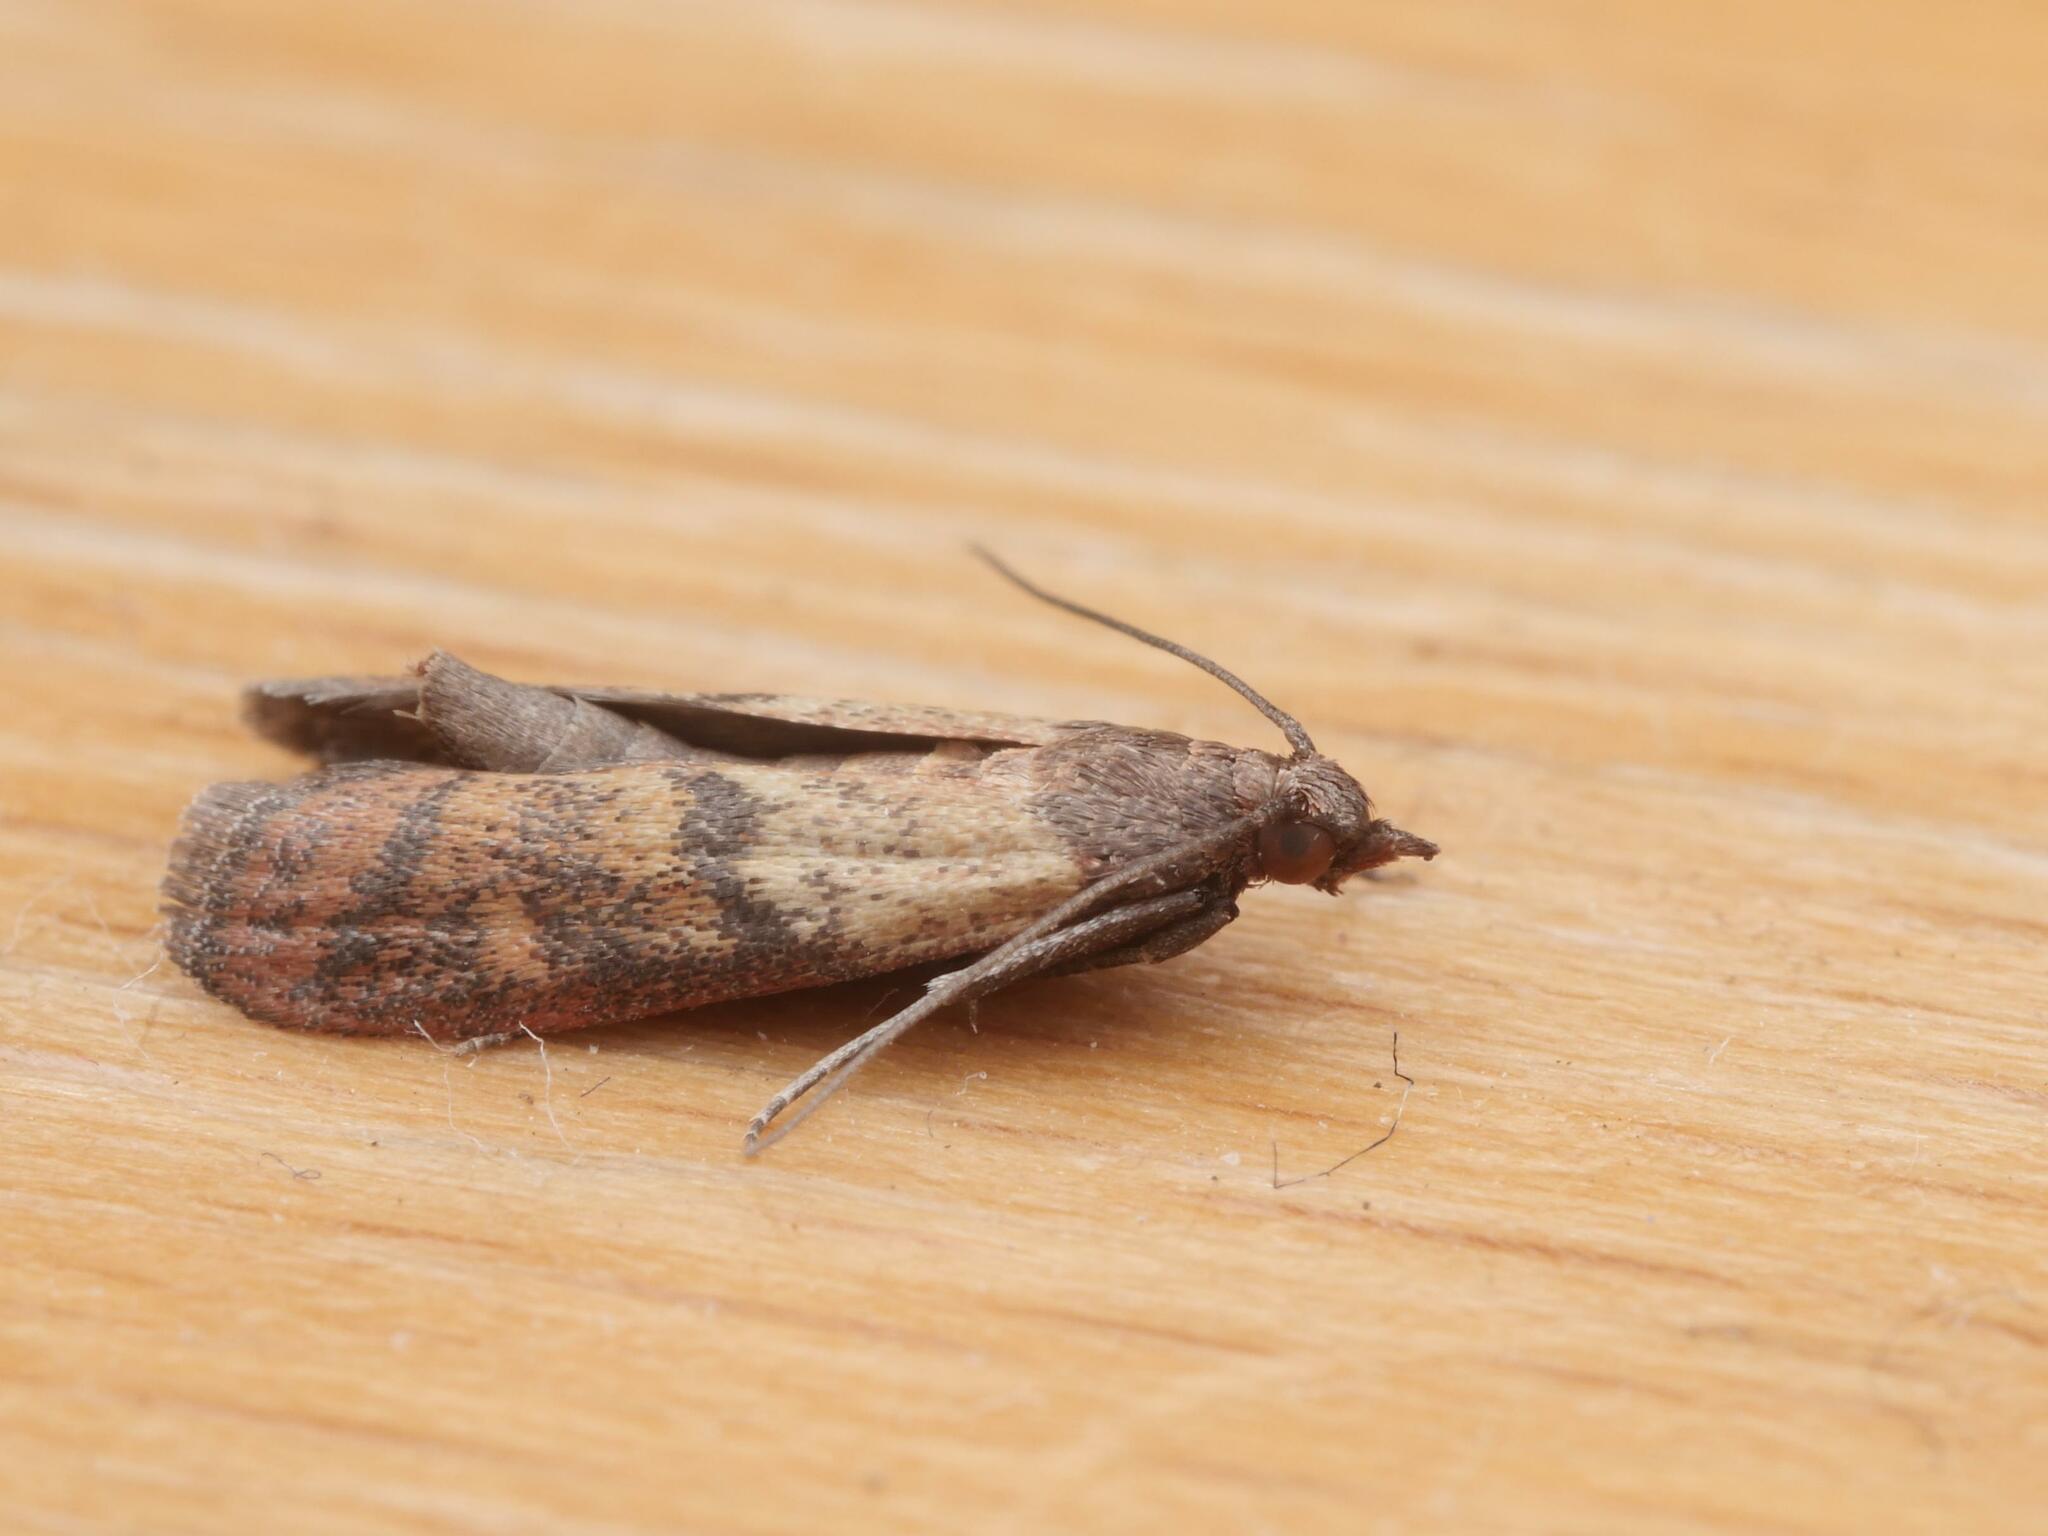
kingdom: Animalia
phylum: Arthropoda
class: Insecta
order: Lepidoptera
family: Pyralidae
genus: Plodia
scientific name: Plodia interpunctella
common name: Indian meal moth
